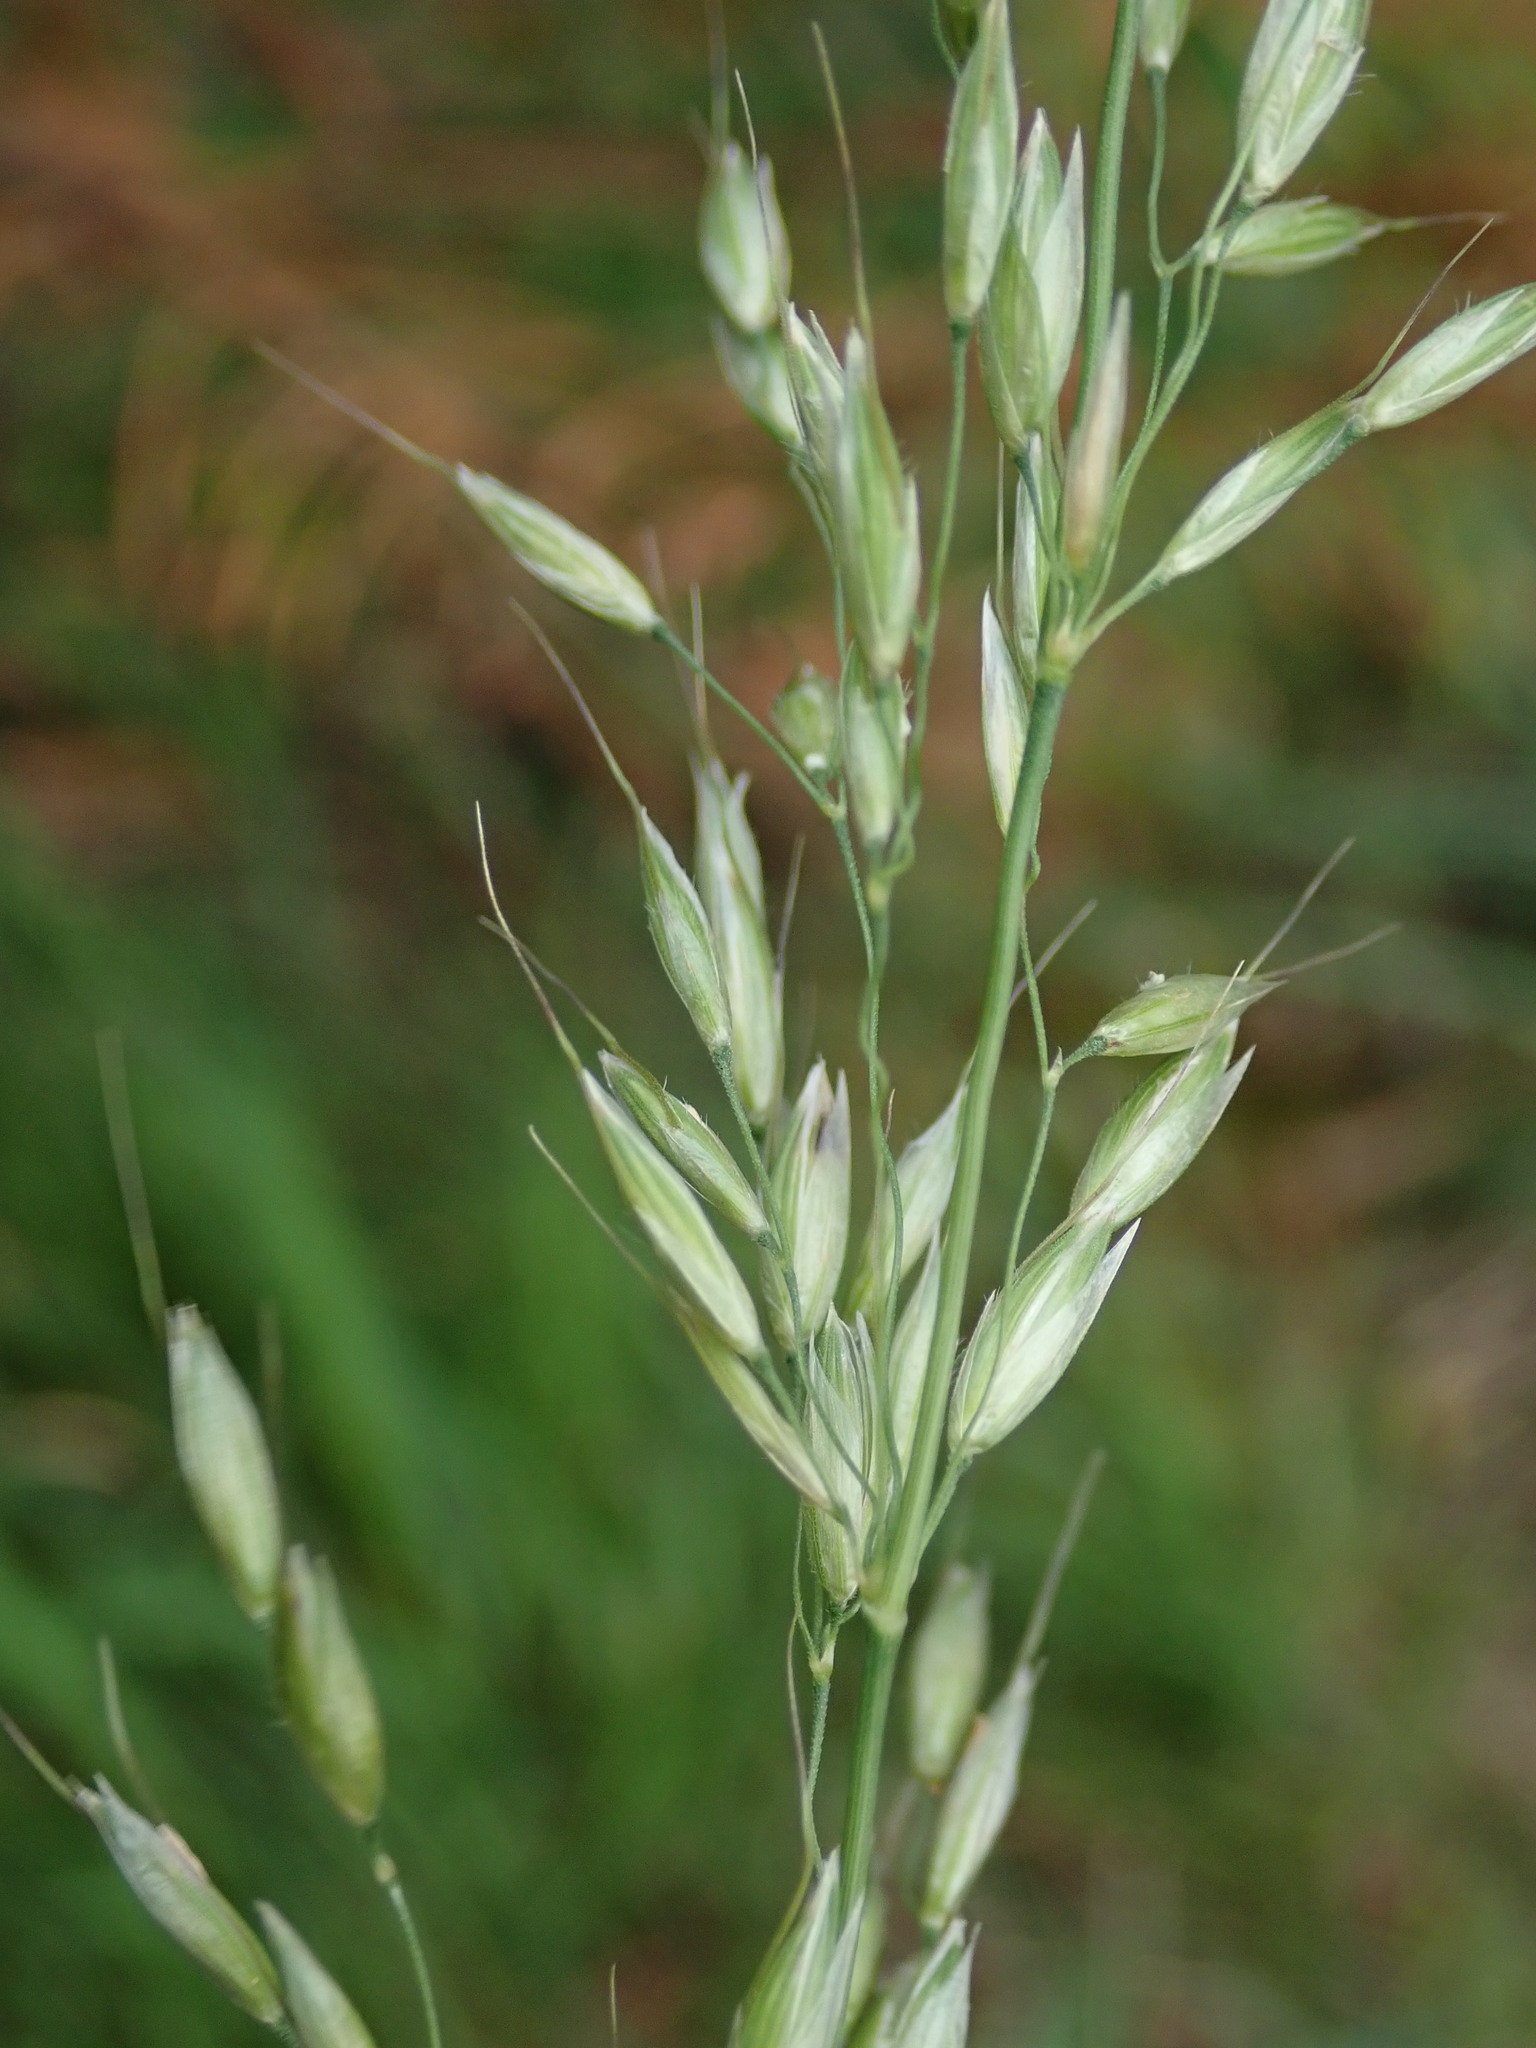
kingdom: Plantae
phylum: Tracheophyta
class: Liliopsida
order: Poales
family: Poaceae
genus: Arrhenatherum
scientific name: Arrhenatherum elatius
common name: Tall oatgrass
